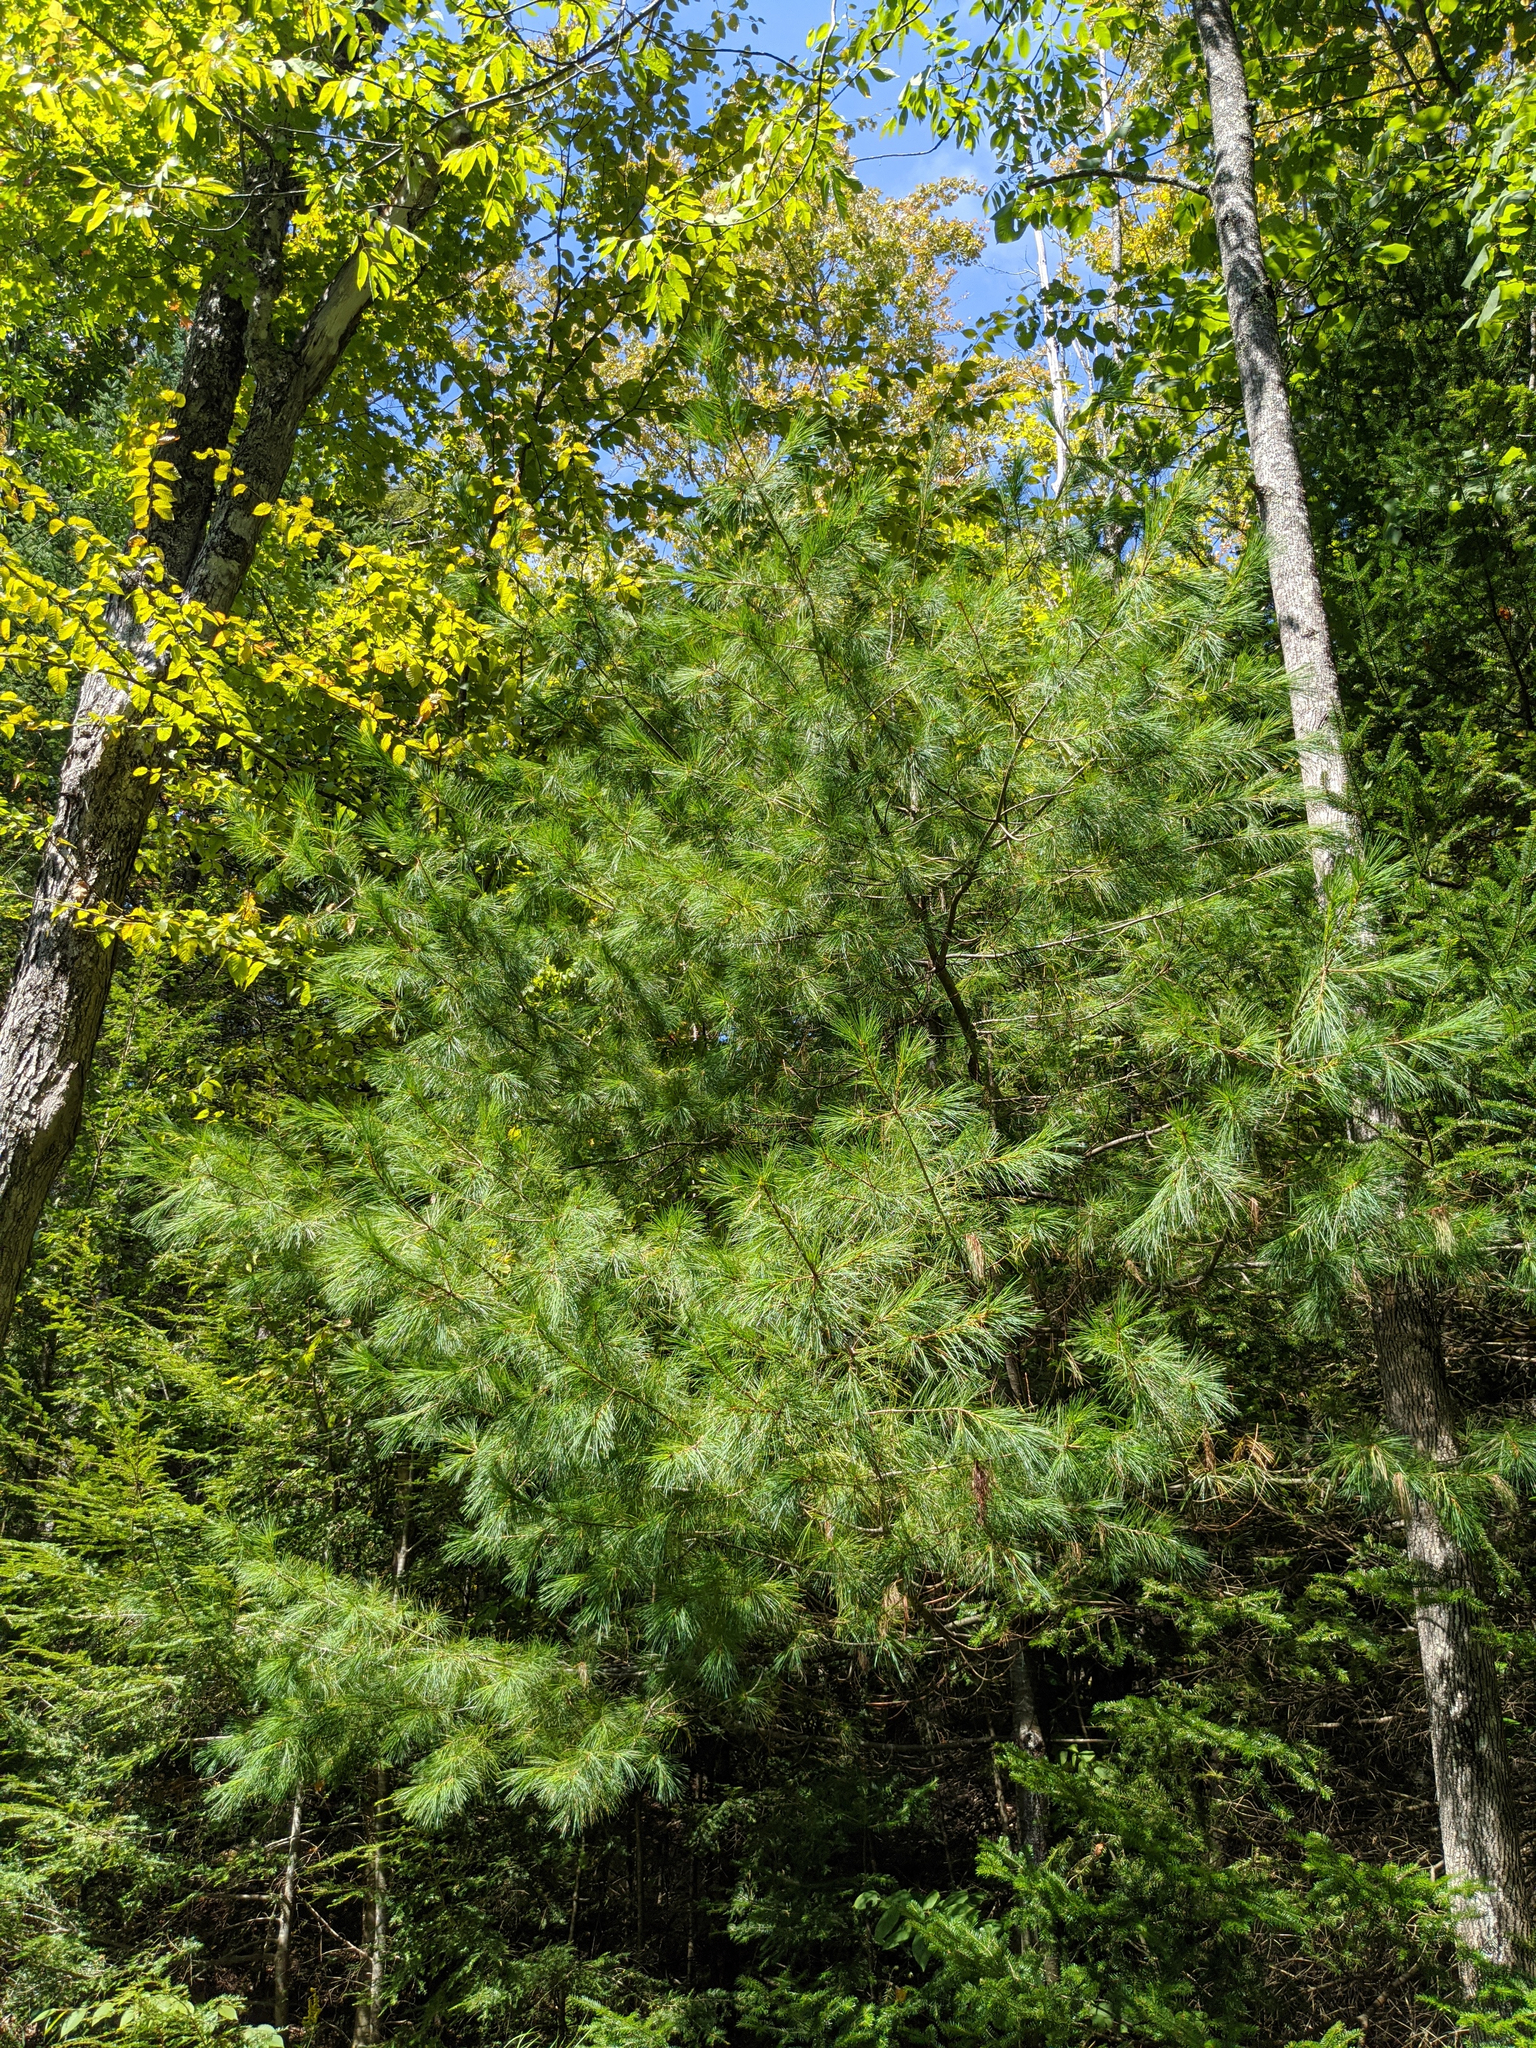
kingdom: Plantae
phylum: Tracheophyta
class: Pinopsida
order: Pinales
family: Pinaceae
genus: Pinus
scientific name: Pinus strobus
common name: Weymouth pine
